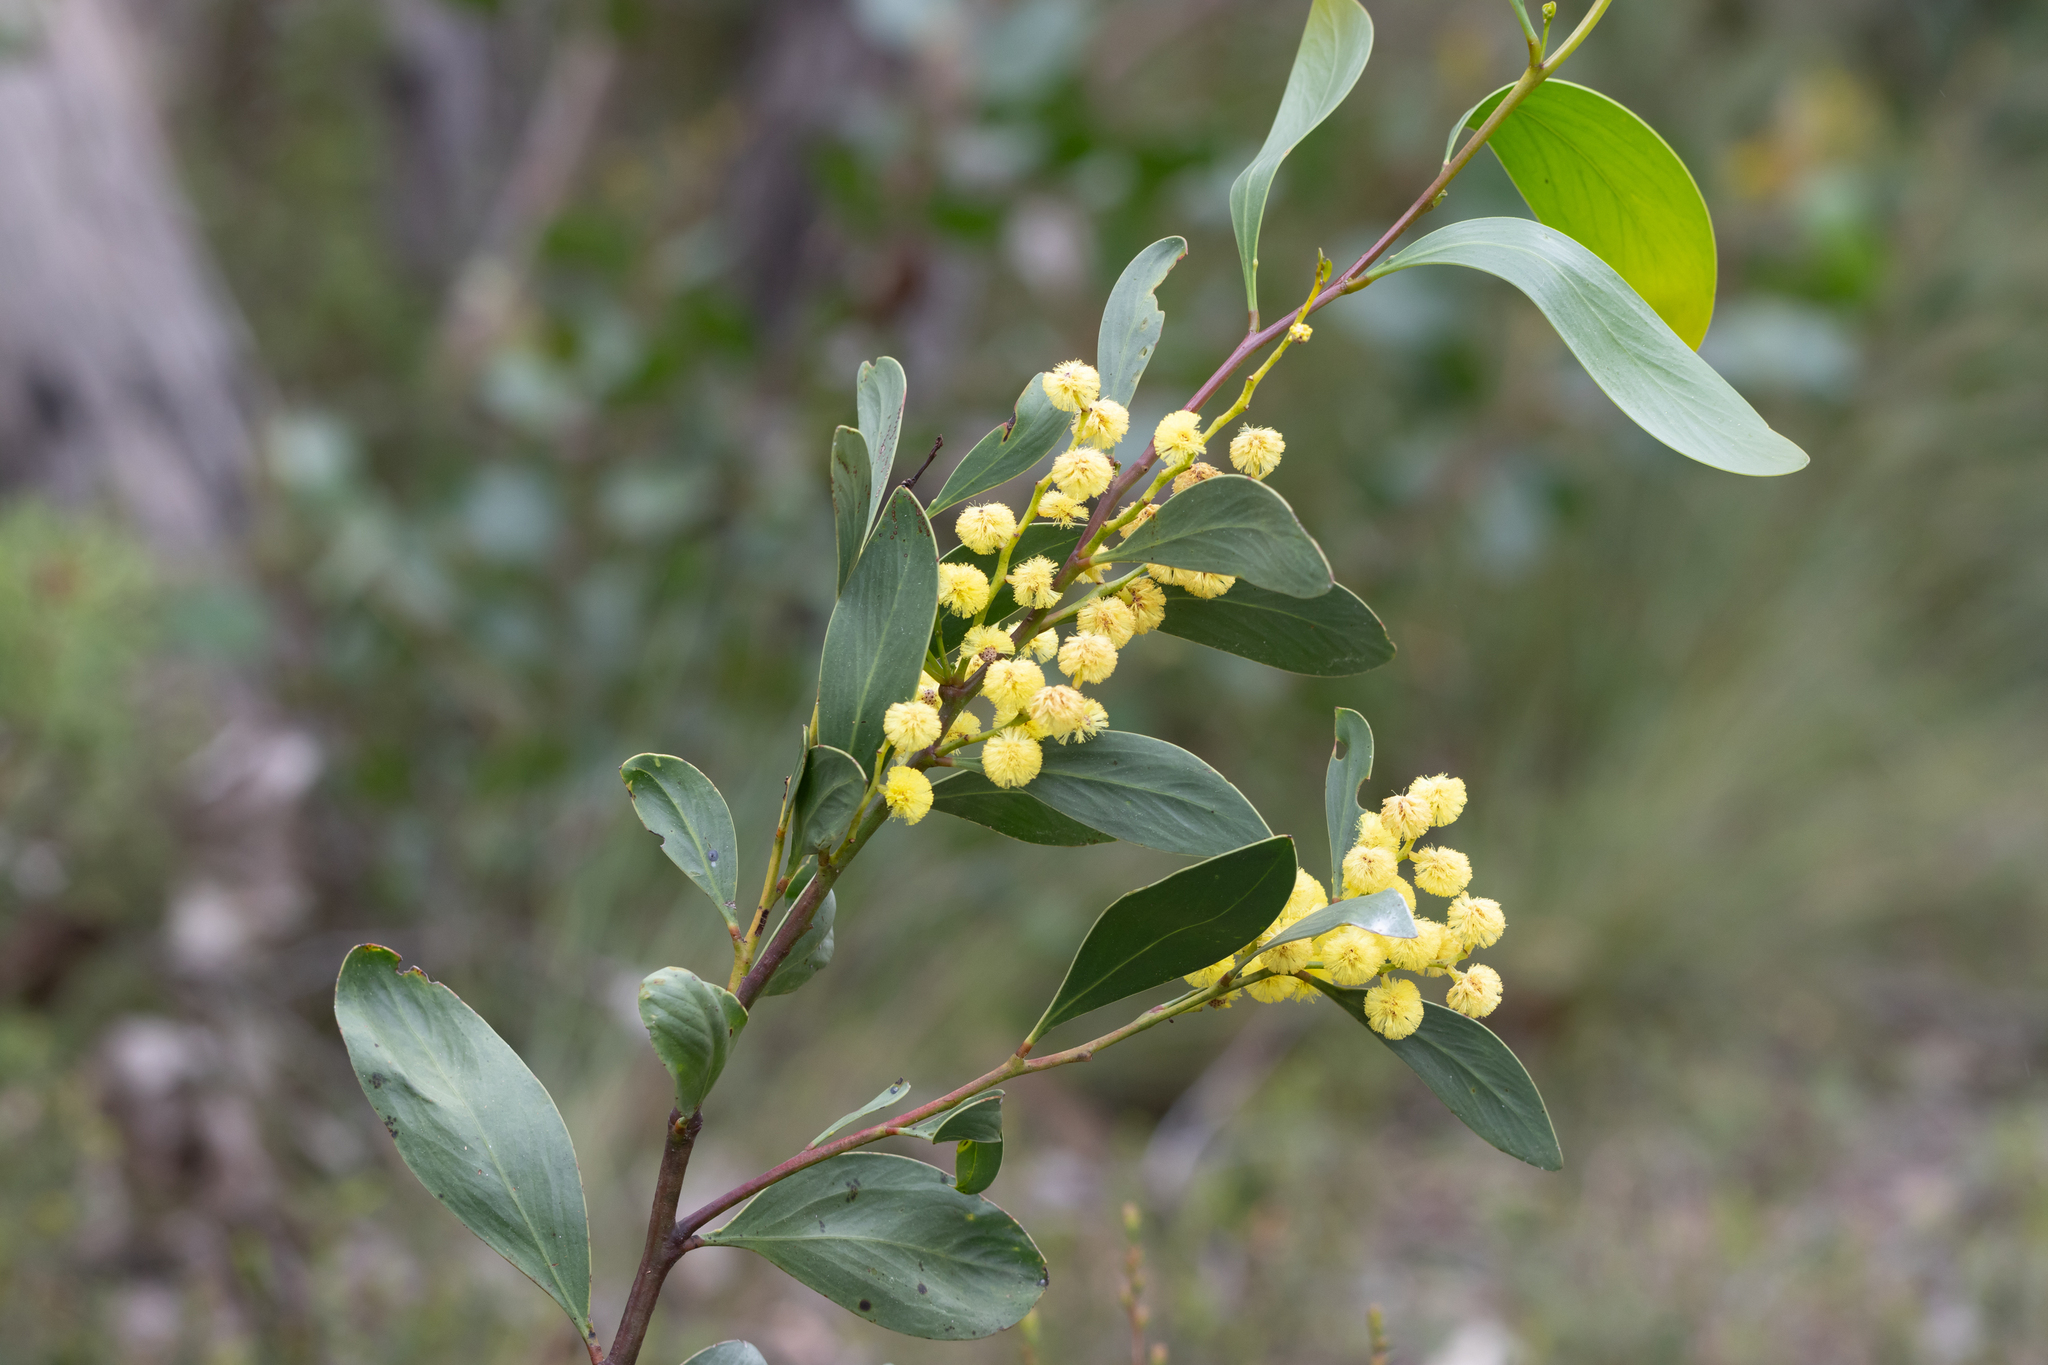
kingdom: Plantae
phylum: Tracheophyta
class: Magnoliopsida
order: Fabales
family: Fabaceae
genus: Acacia
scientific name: Acacia pycnantha
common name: Golden wattle
